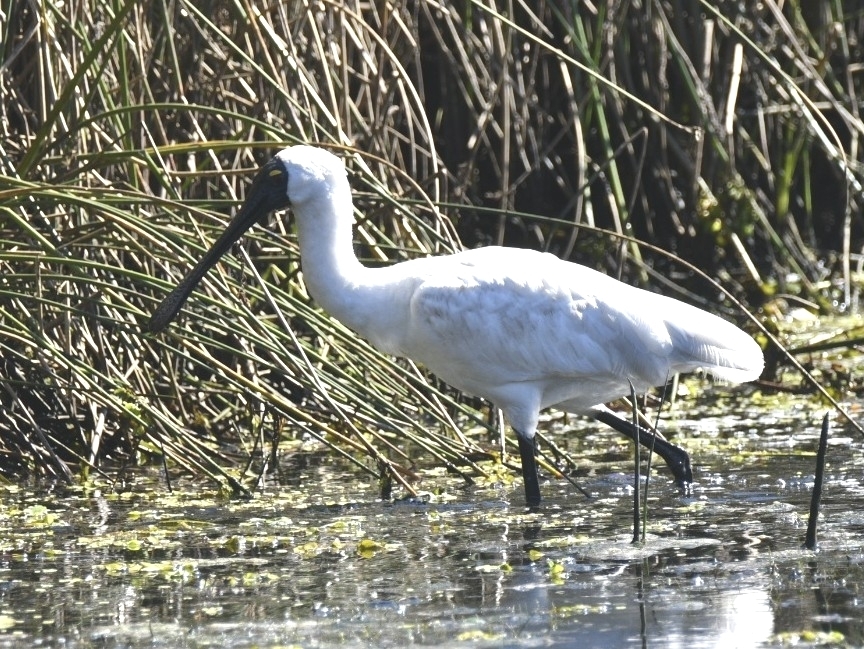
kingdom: Animalia
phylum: Chordata
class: Aves
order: Pelecaniformes
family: Threskiornithidae
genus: Platalea
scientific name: Platalea regia
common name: Royal spoonbill
